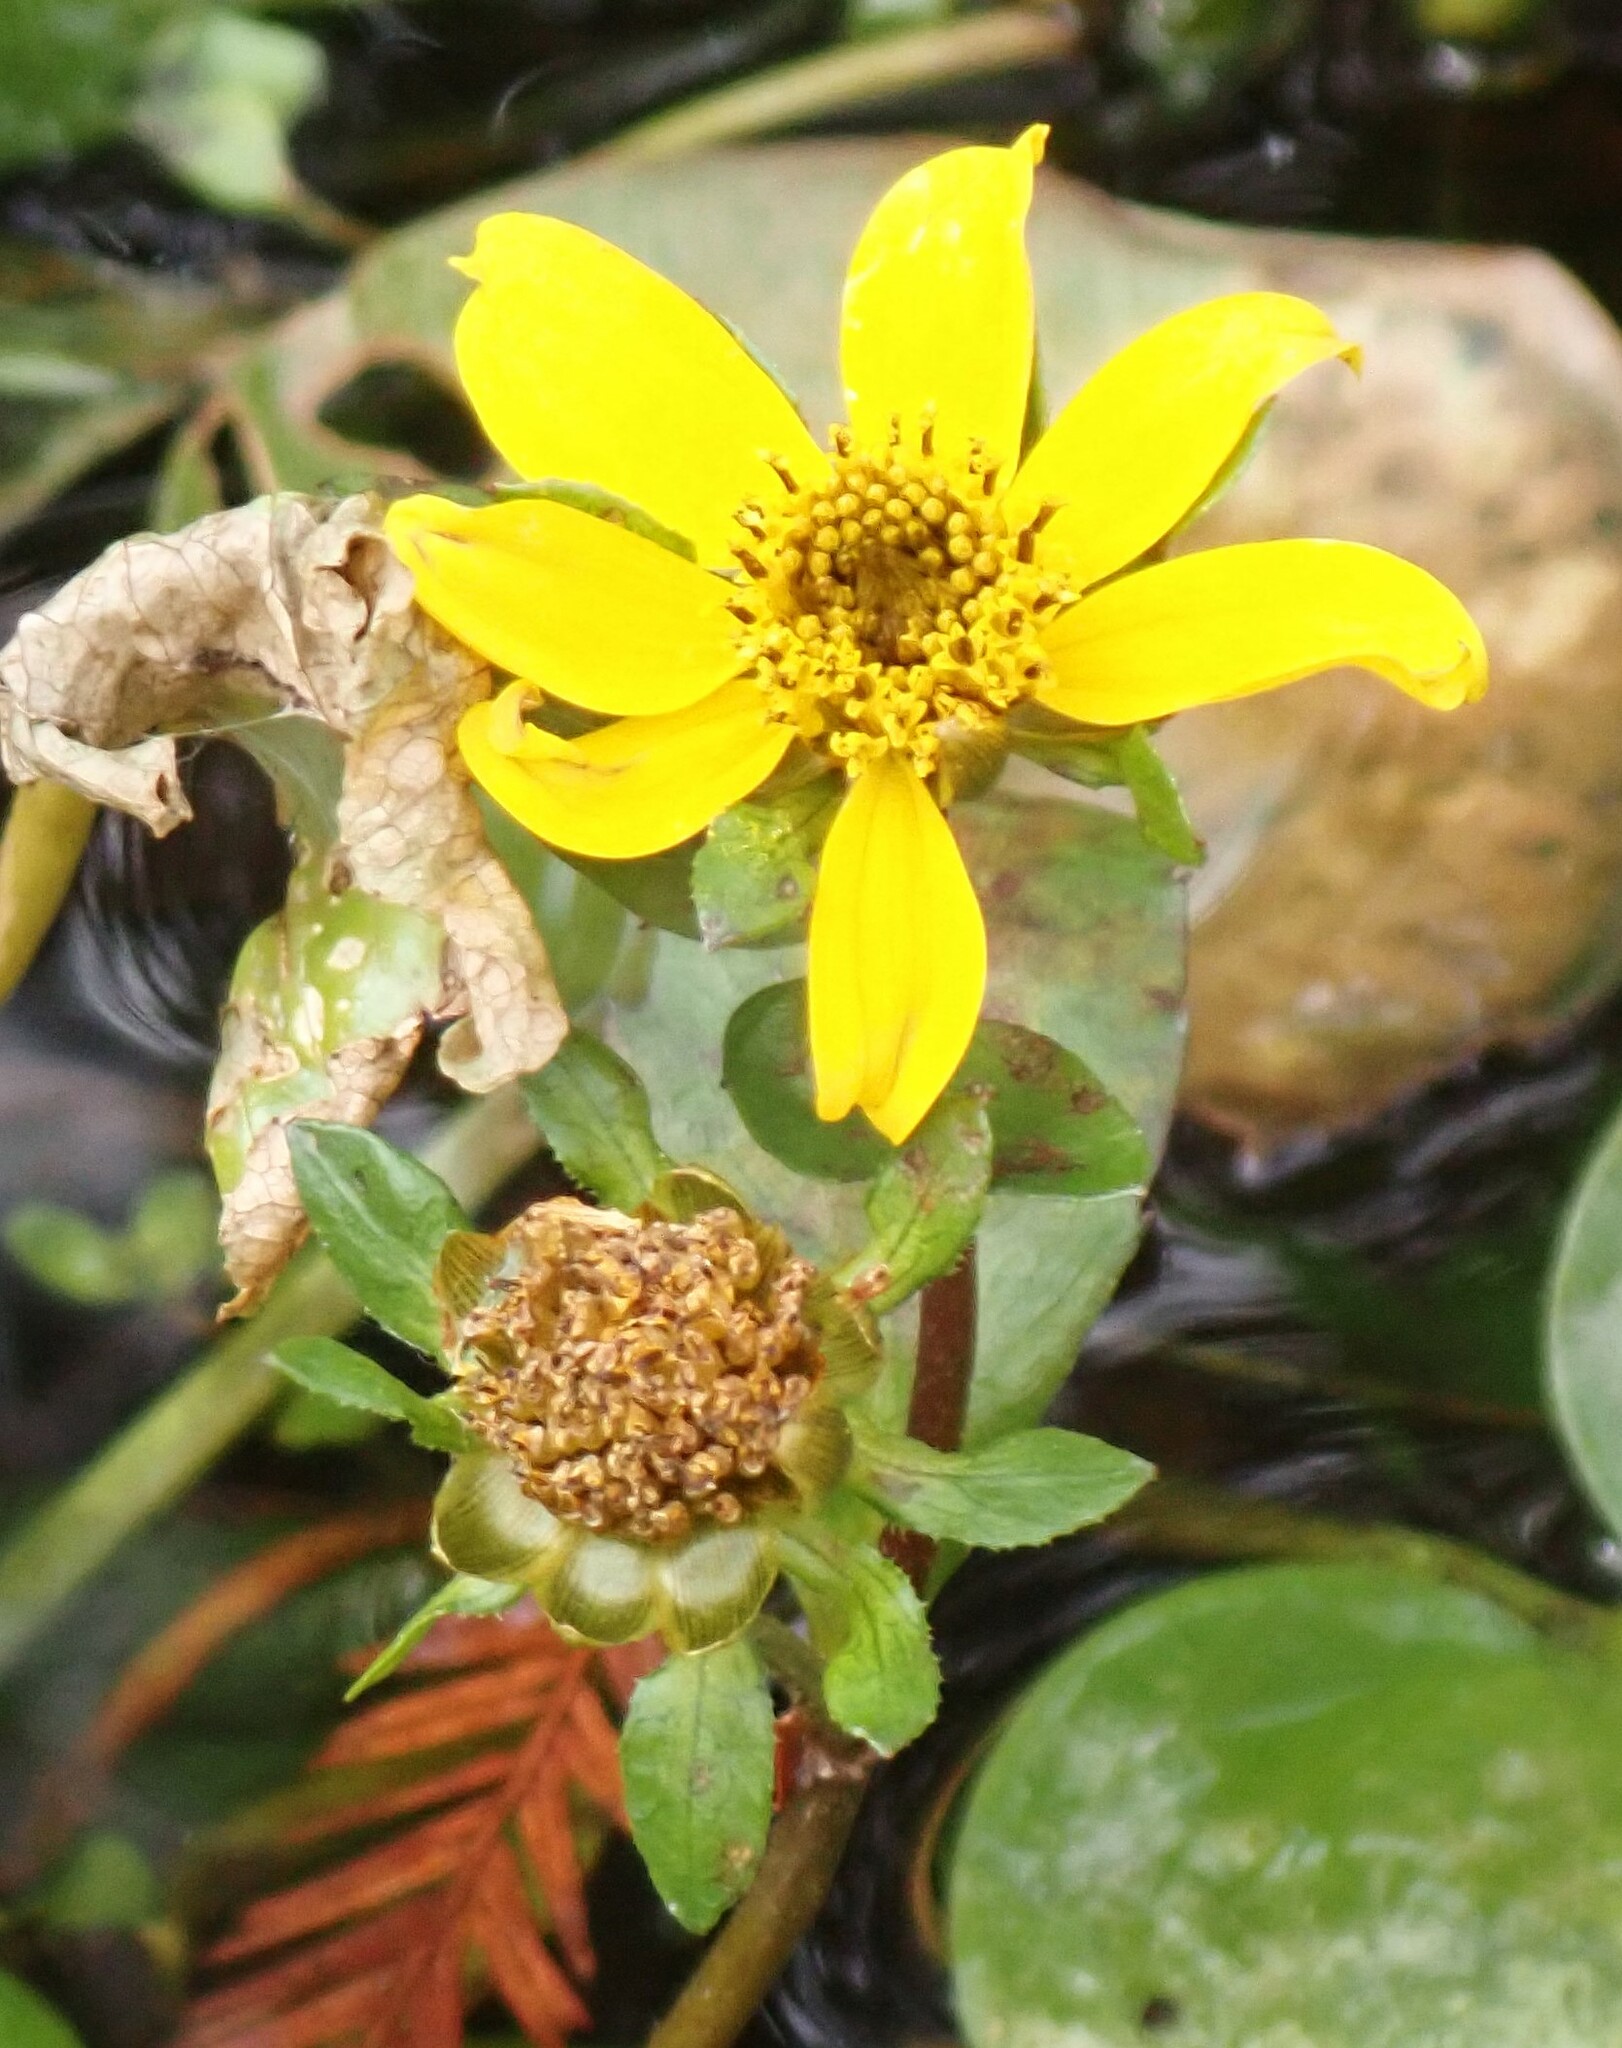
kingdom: Plantae
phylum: Tracheophyta
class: Magnoliopsida
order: Asterales
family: Asteraceae
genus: Bidens
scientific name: Bidens laevis
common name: Larger bur-marigold
